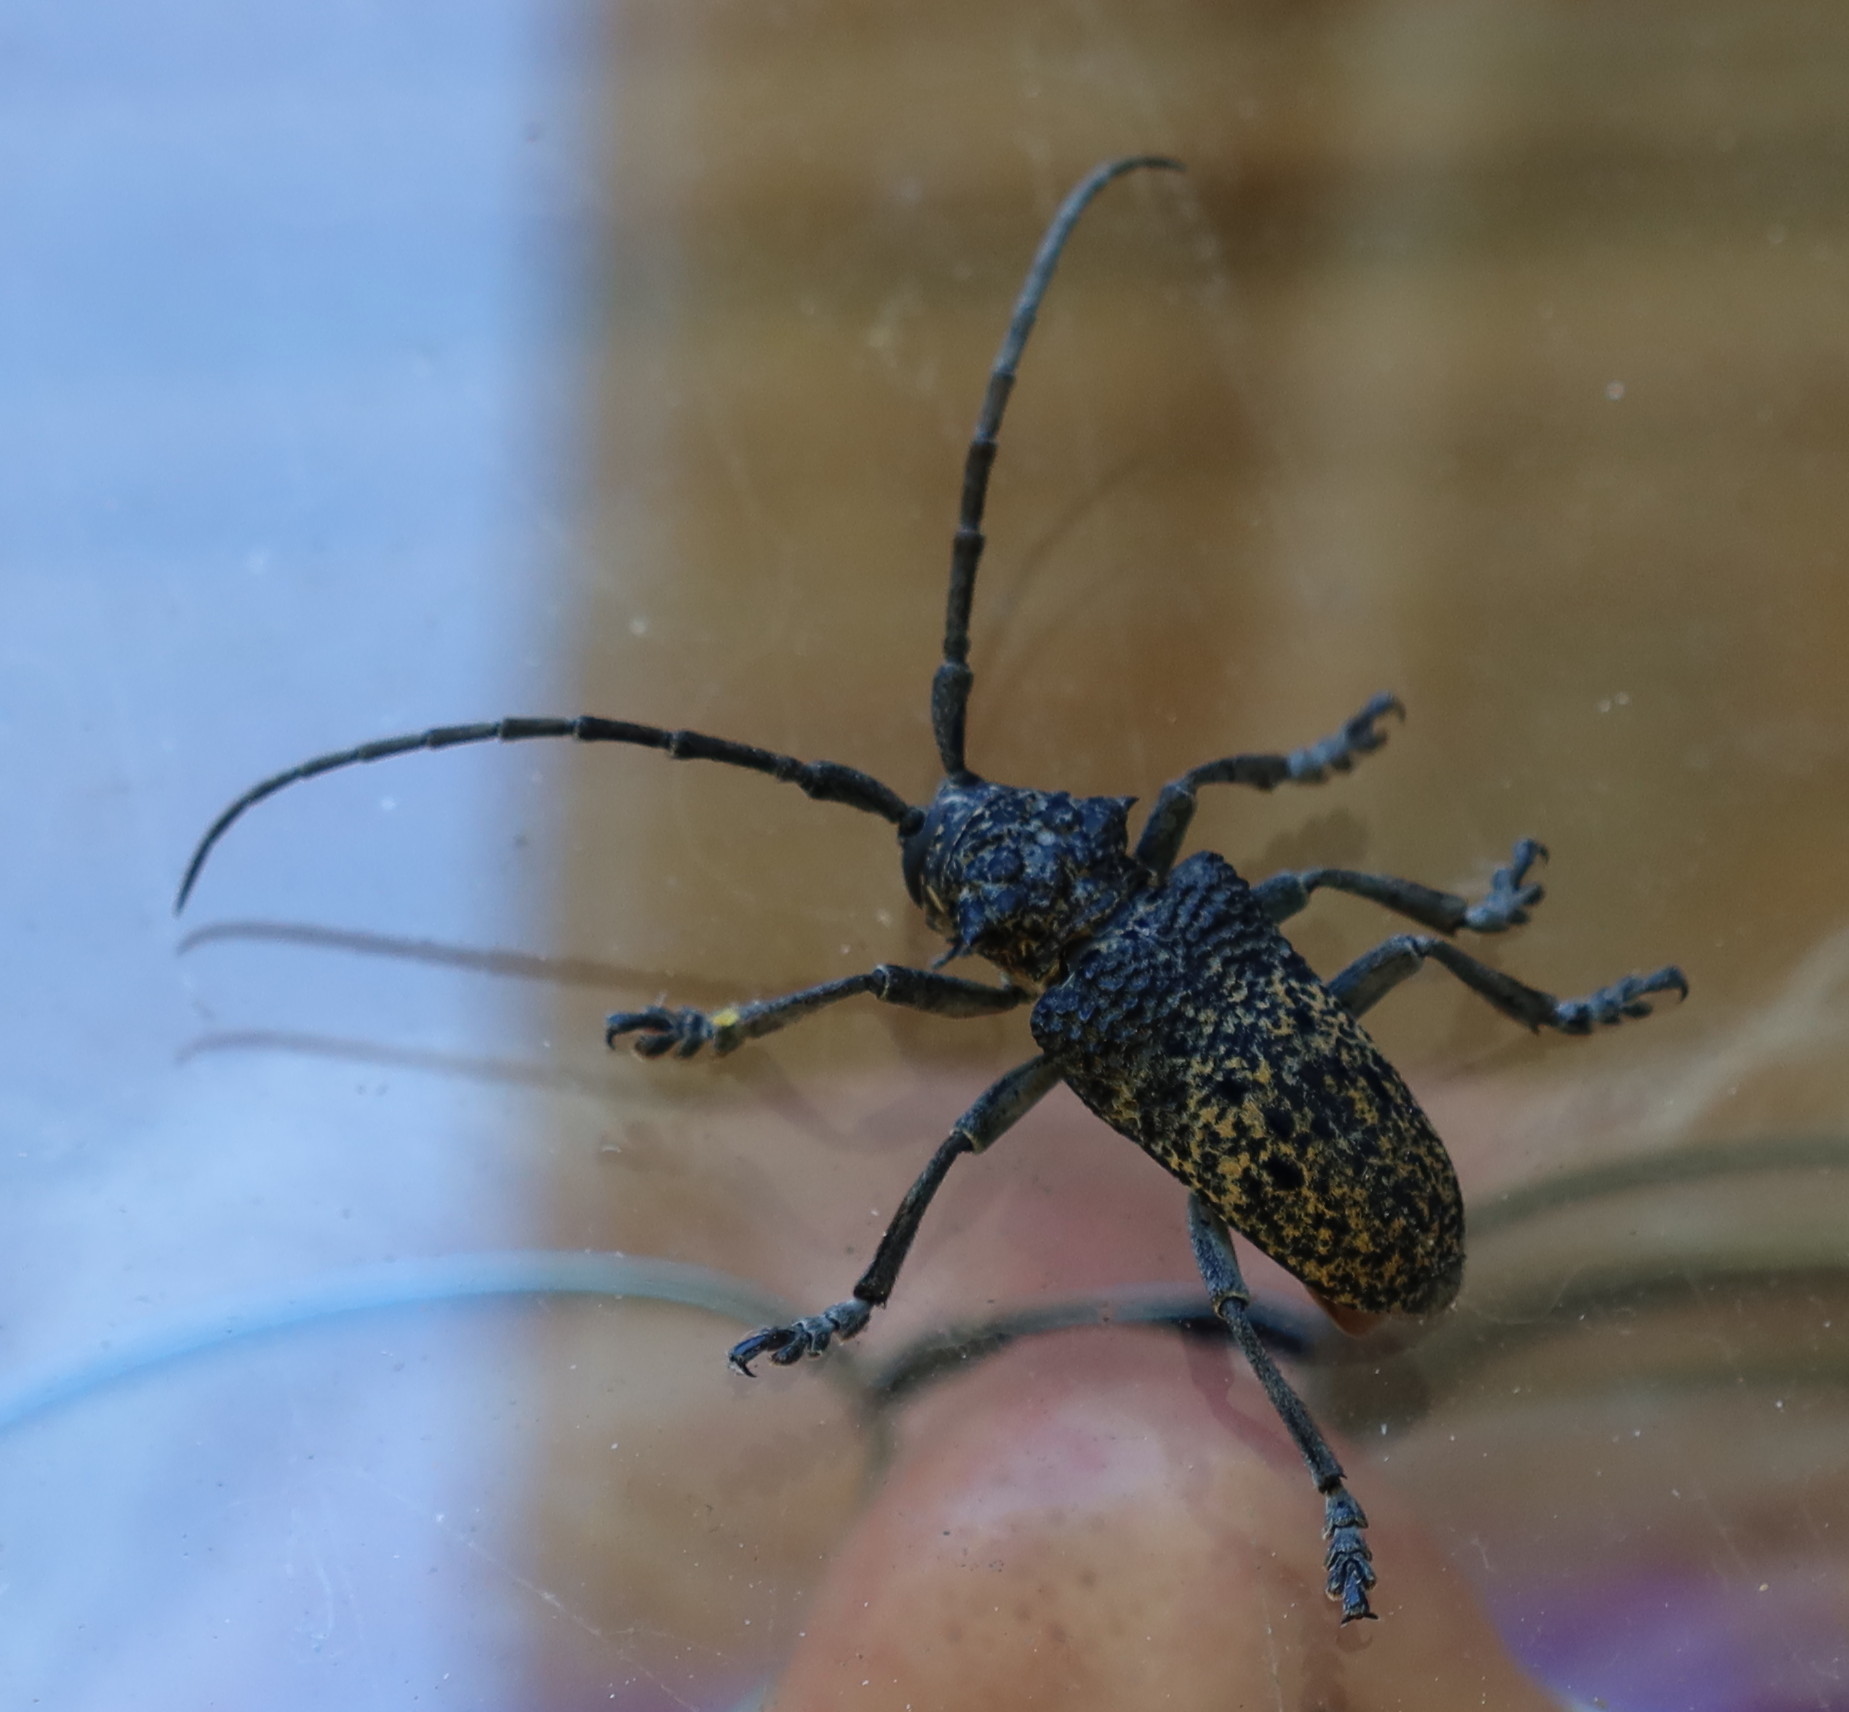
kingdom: Animalia
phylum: Arthropoda
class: Insecta
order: Coleoptera
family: Cerambycidae
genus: Phryneta
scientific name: Phryneta spinator
